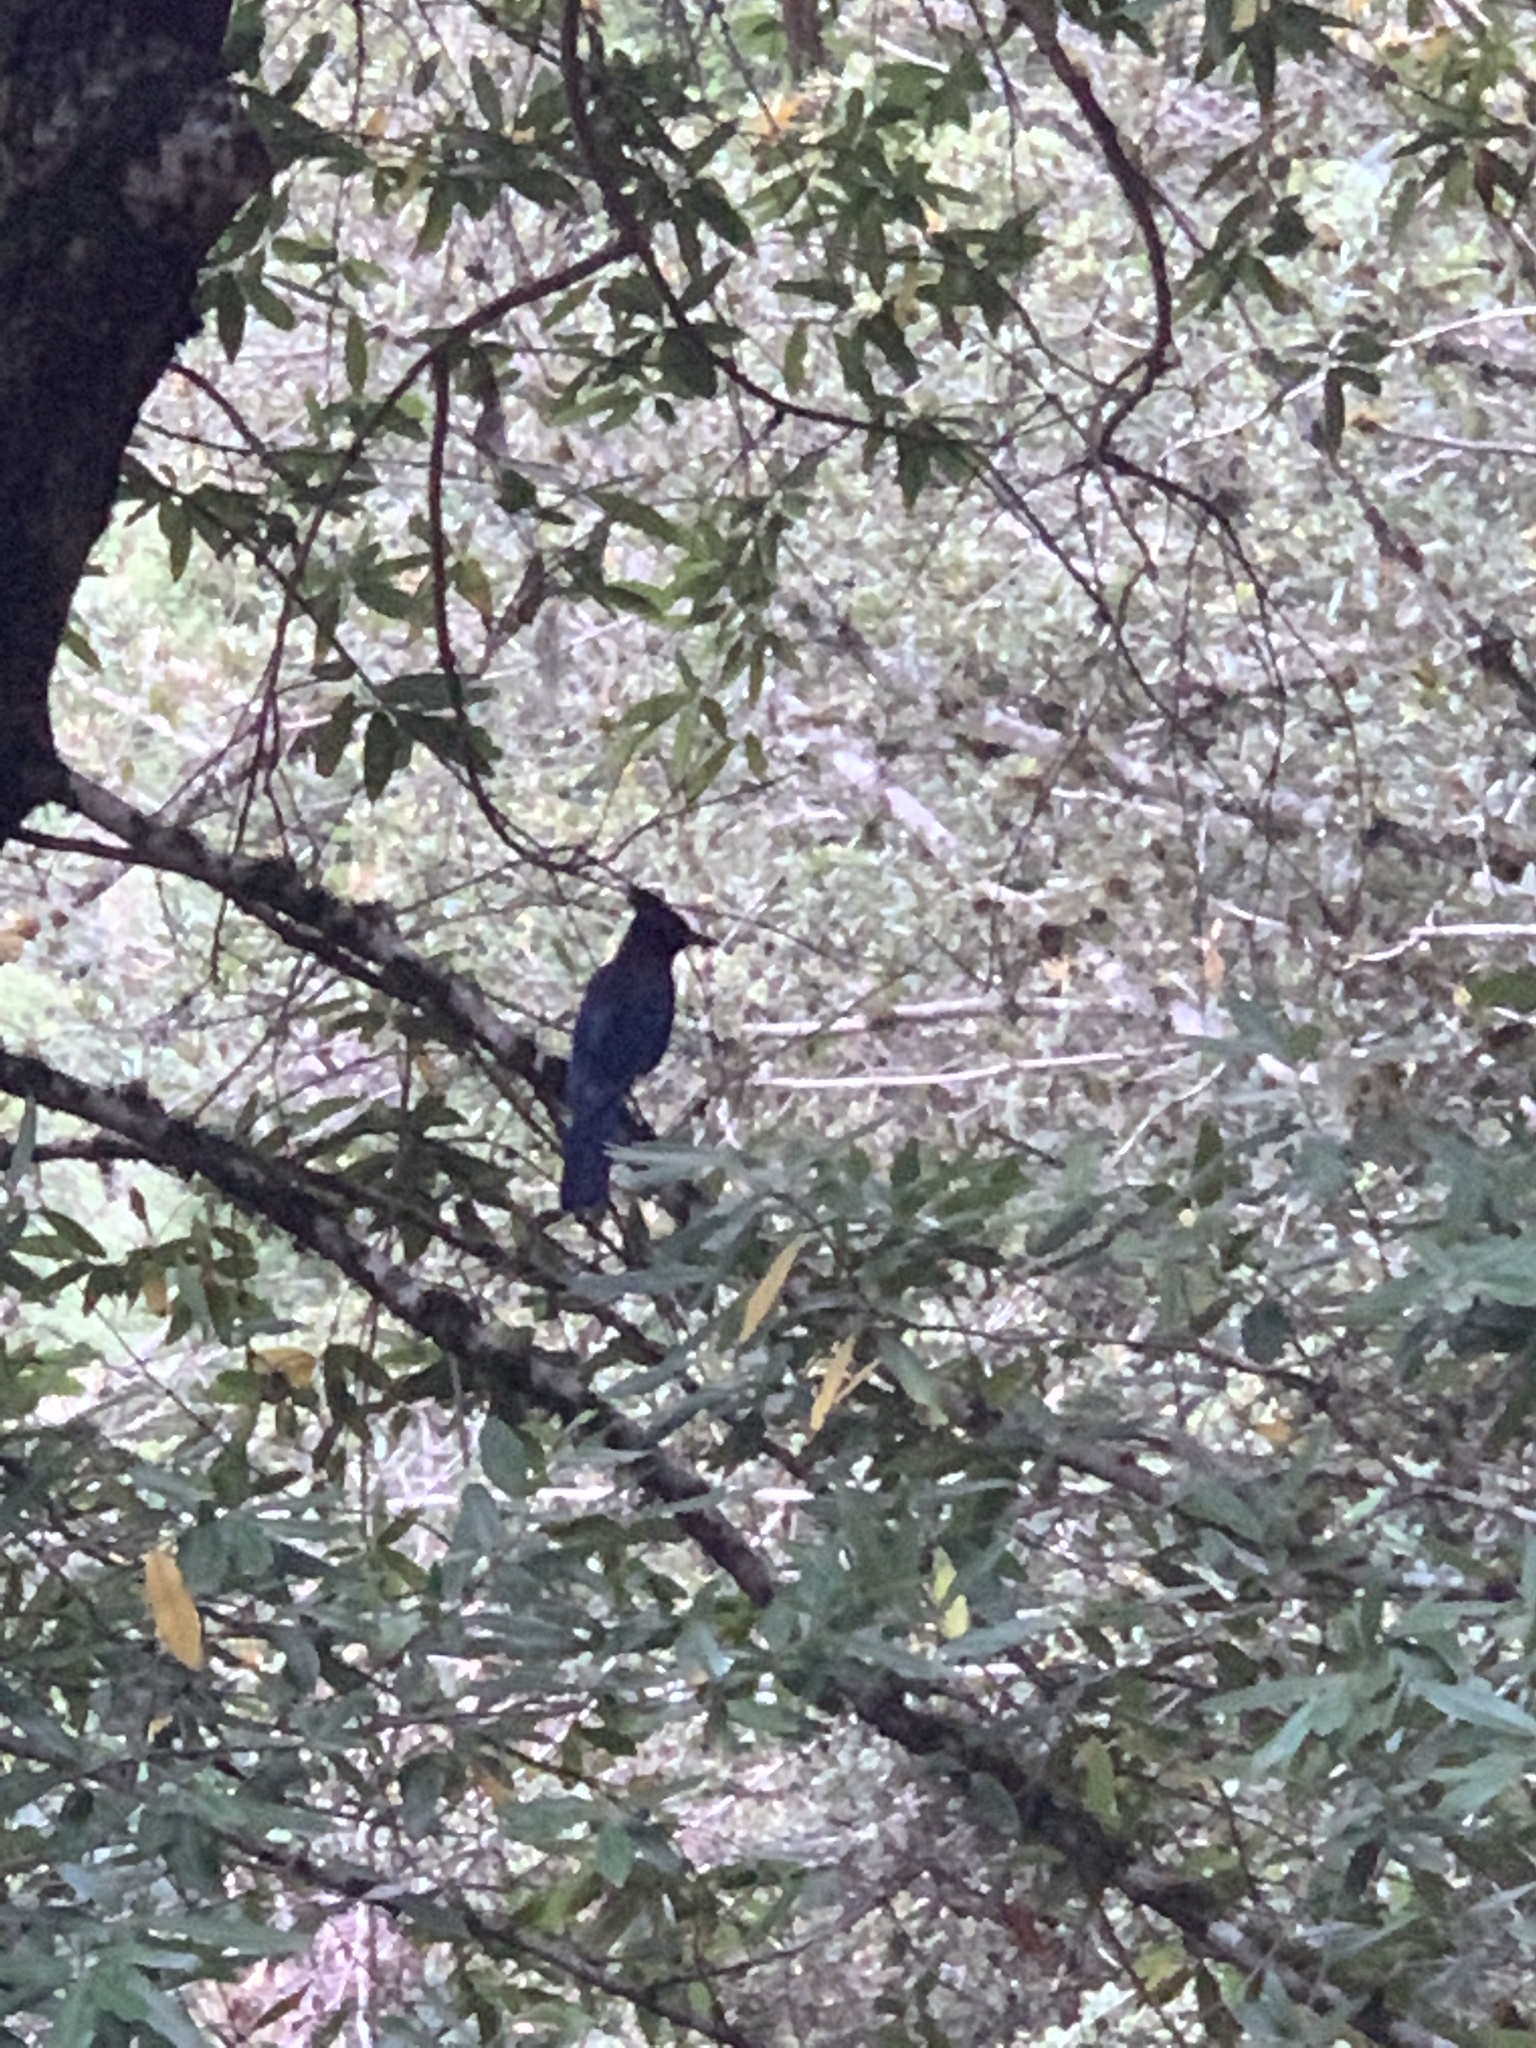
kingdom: Animalia
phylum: Chordata
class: Aves
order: Passeriformes
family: Corvidae
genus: Cyanocitta
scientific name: Cyanocitta stelleri
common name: Steller's jay
